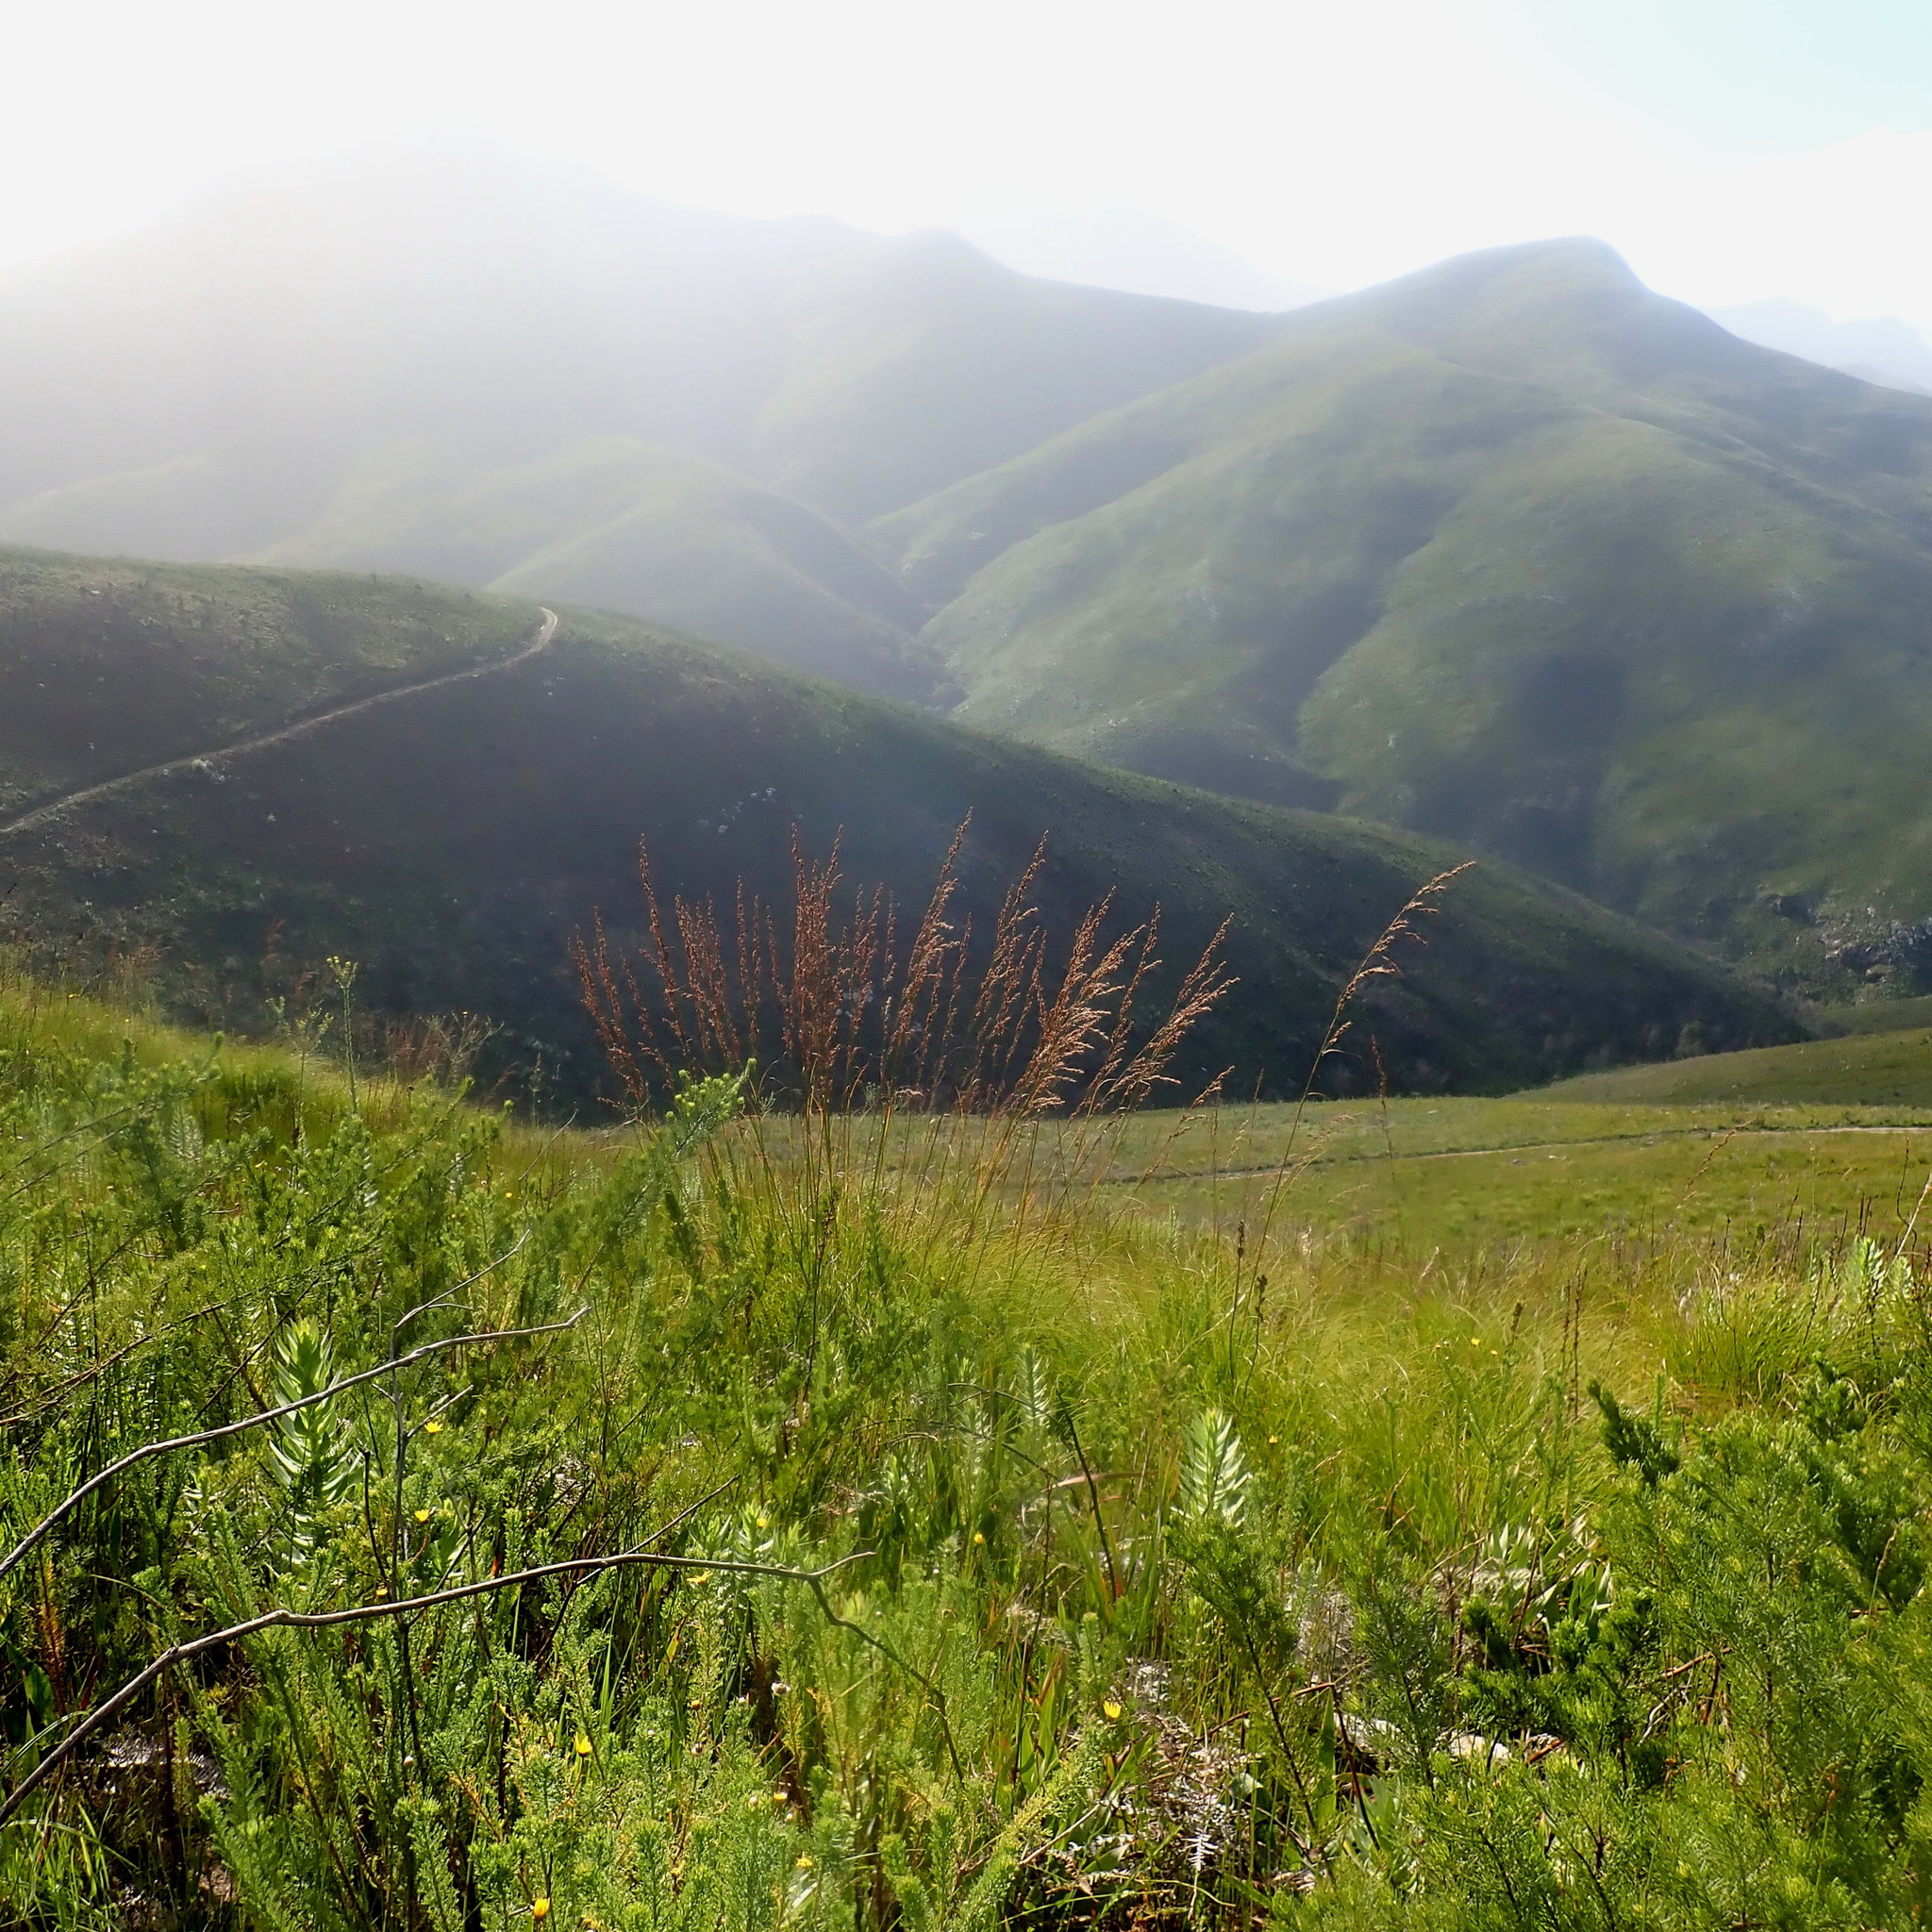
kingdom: Plantae
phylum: Tracheophyta
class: Liliopsida
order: Poales
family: Cyperaceae
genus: Tetraria
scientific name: Tetraria involucrata
